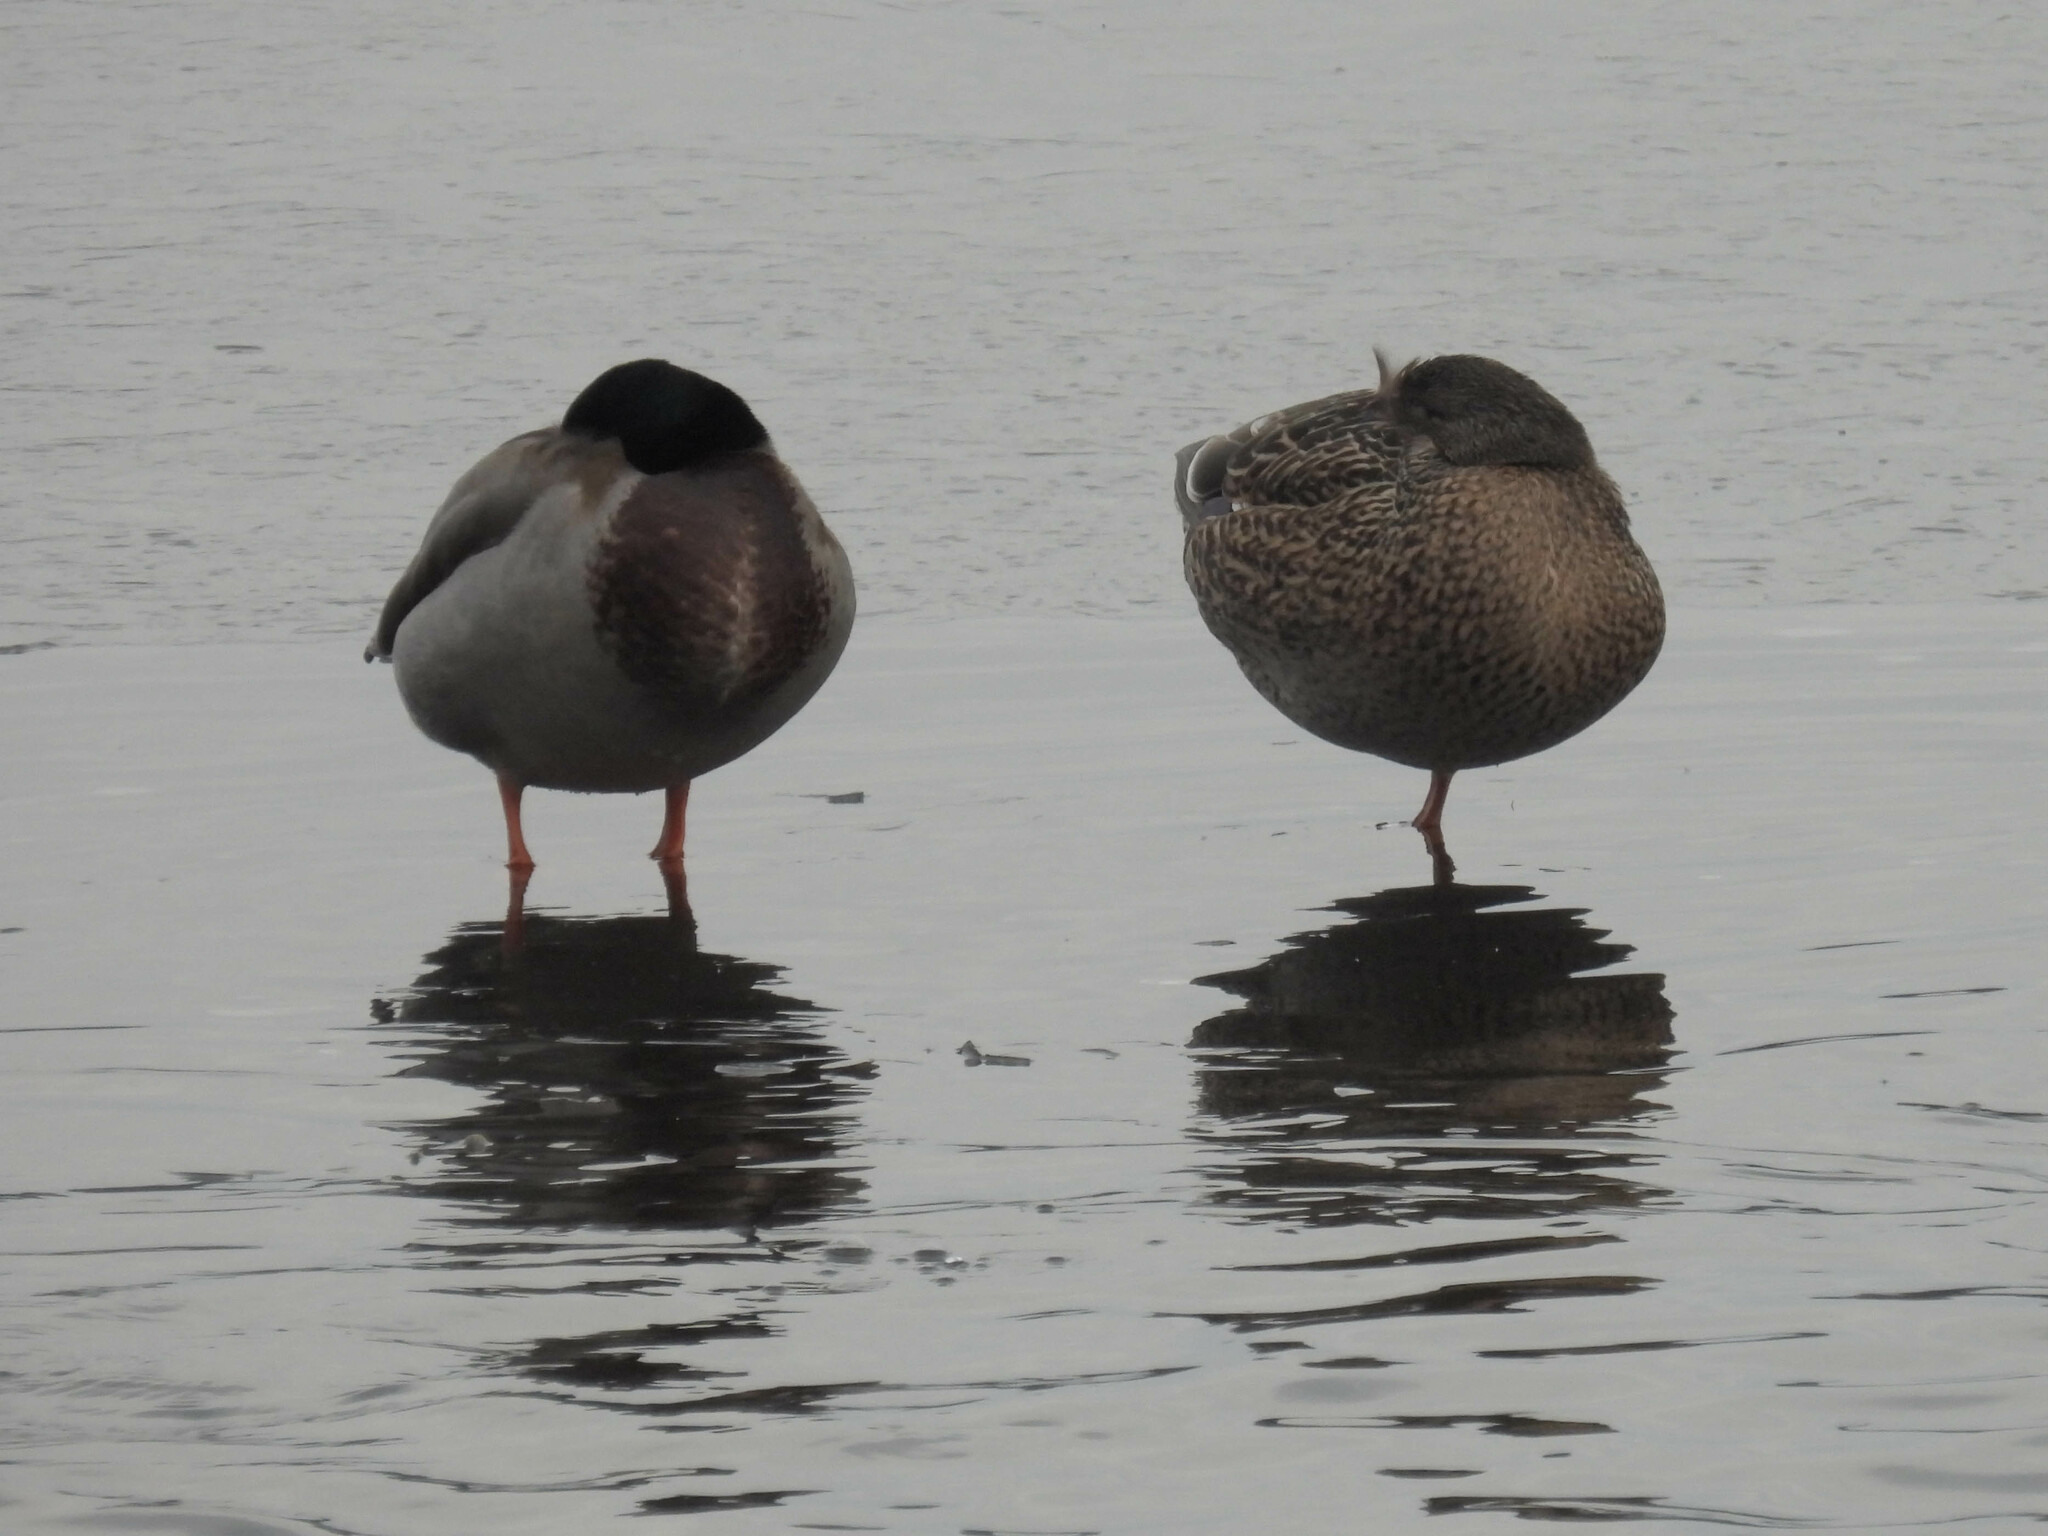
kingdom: Animalia
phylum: Chordata
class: Aves
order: Anseriformes
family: Anatidae
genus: Anas
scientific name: Anas platyrhynchos
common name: Mallard
